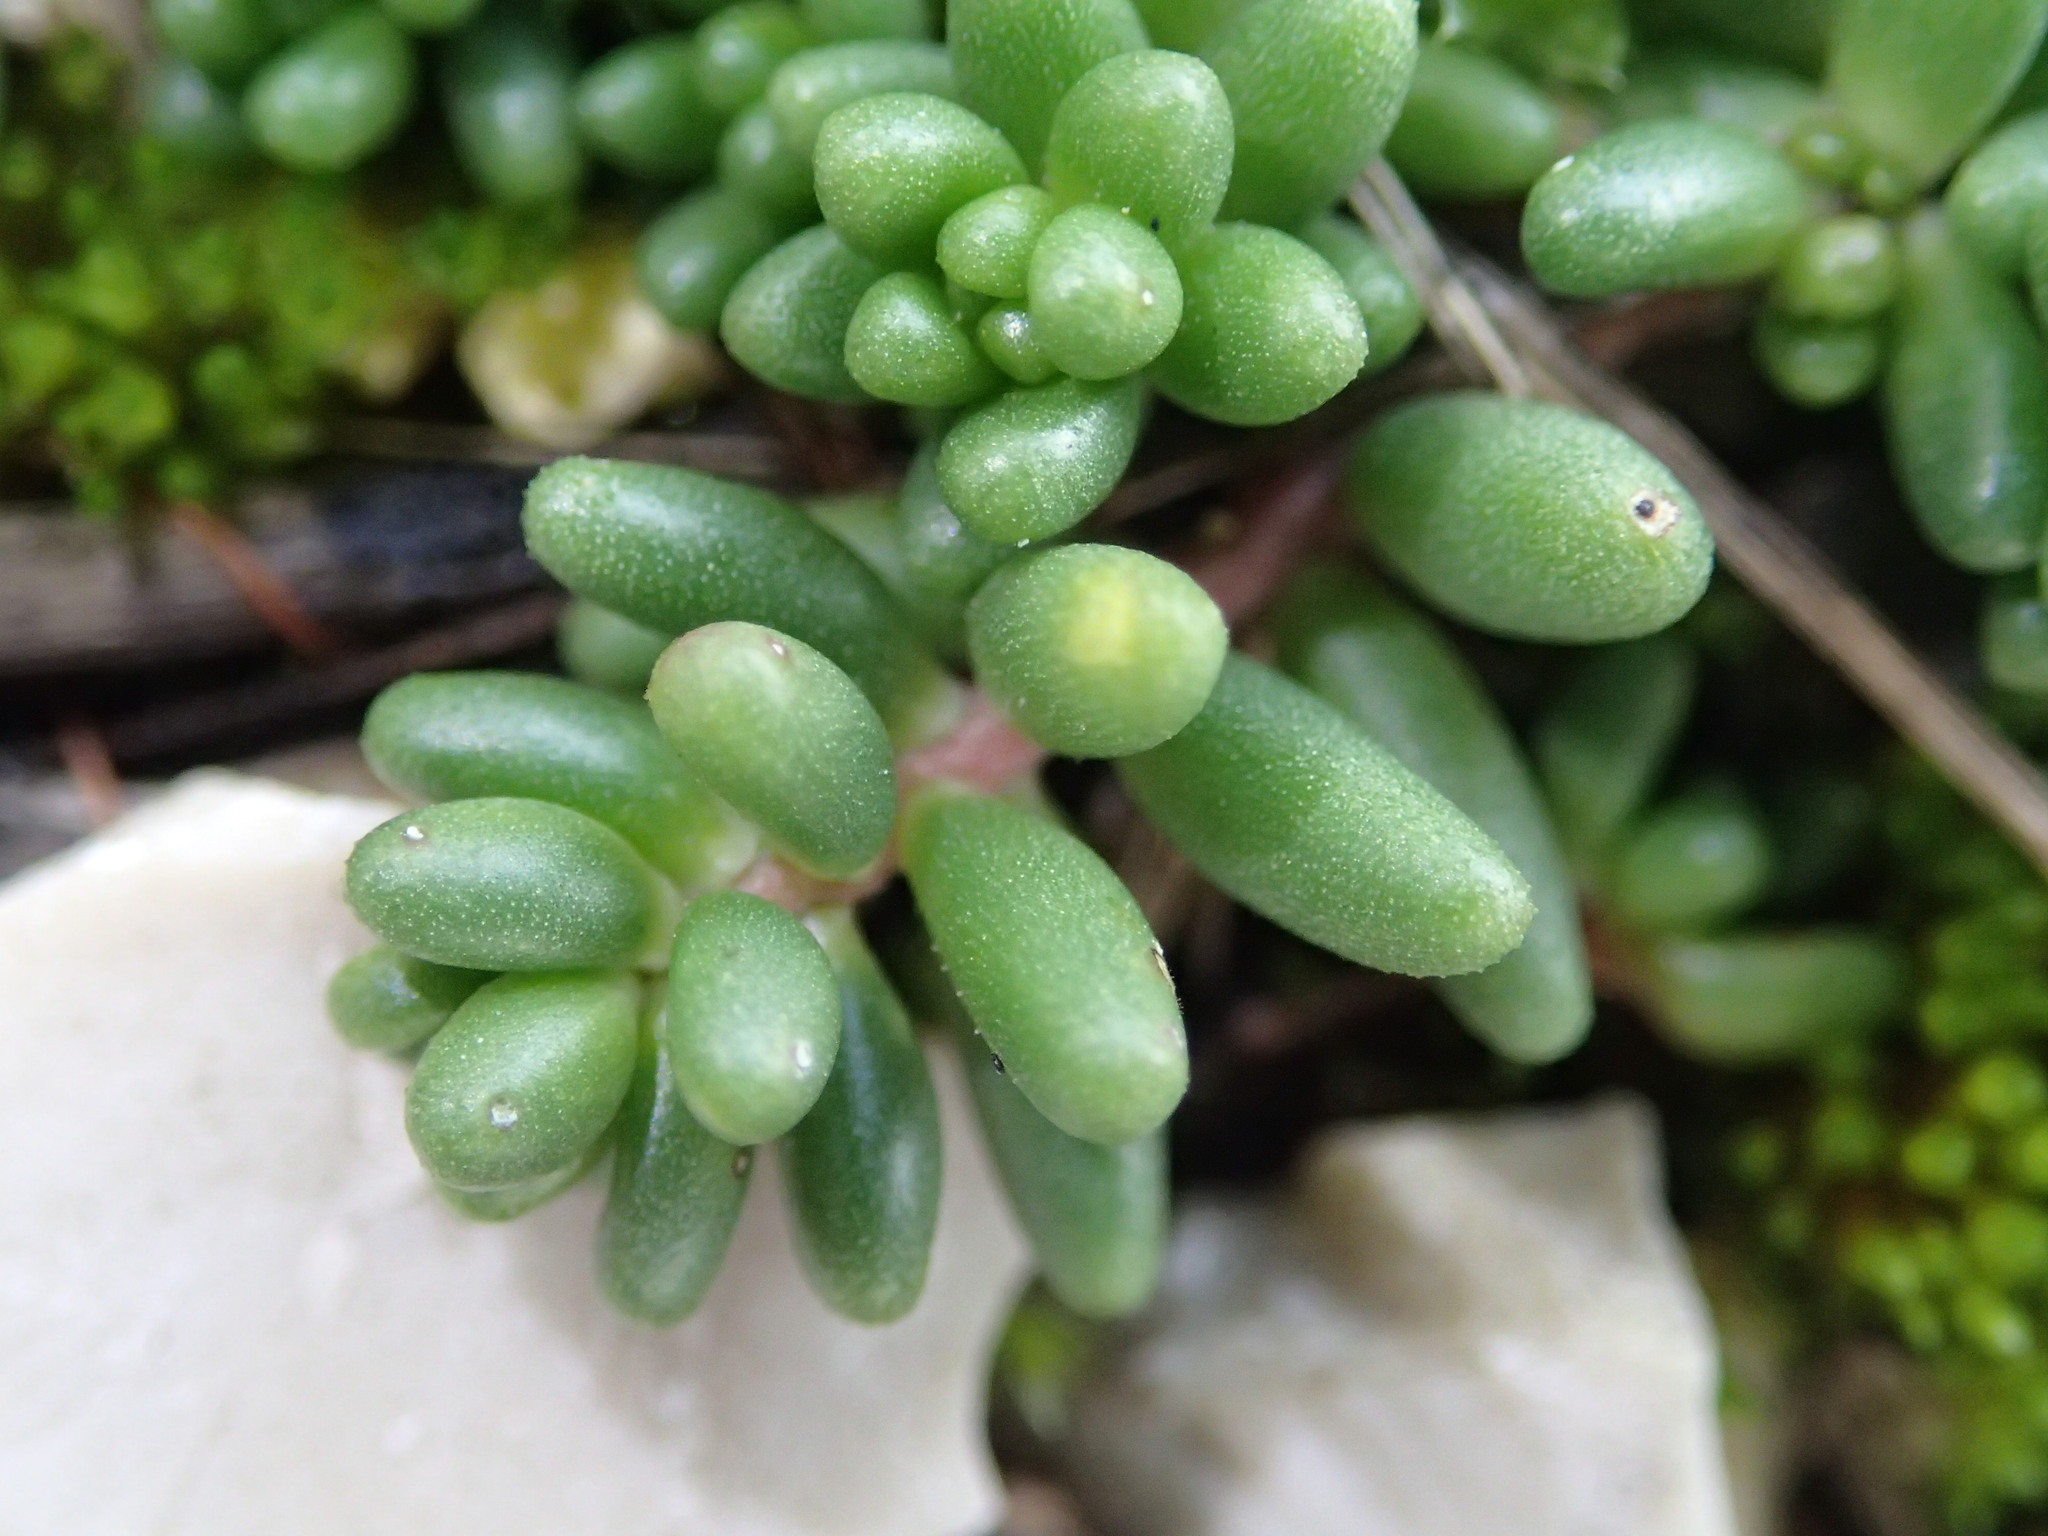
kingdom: Plantae
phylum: Tracheophyta
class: Magnoliopsida
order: Saxifragales
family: Crassulaceae
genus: Sedum
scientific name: Sedum album
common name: White stonecrop
